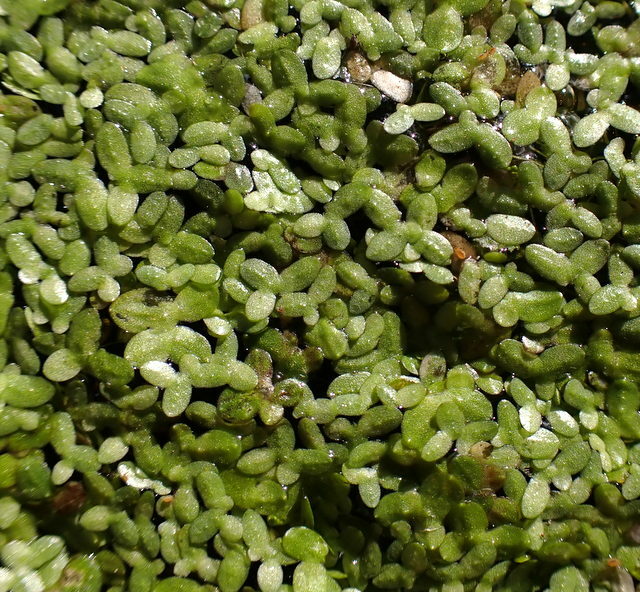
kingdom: Plantae
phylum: Tracheophyta
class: Liliopsida
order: Alismatales
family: Araceae
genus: Lemna
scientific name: Lemna minuta
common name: Least duckweed
